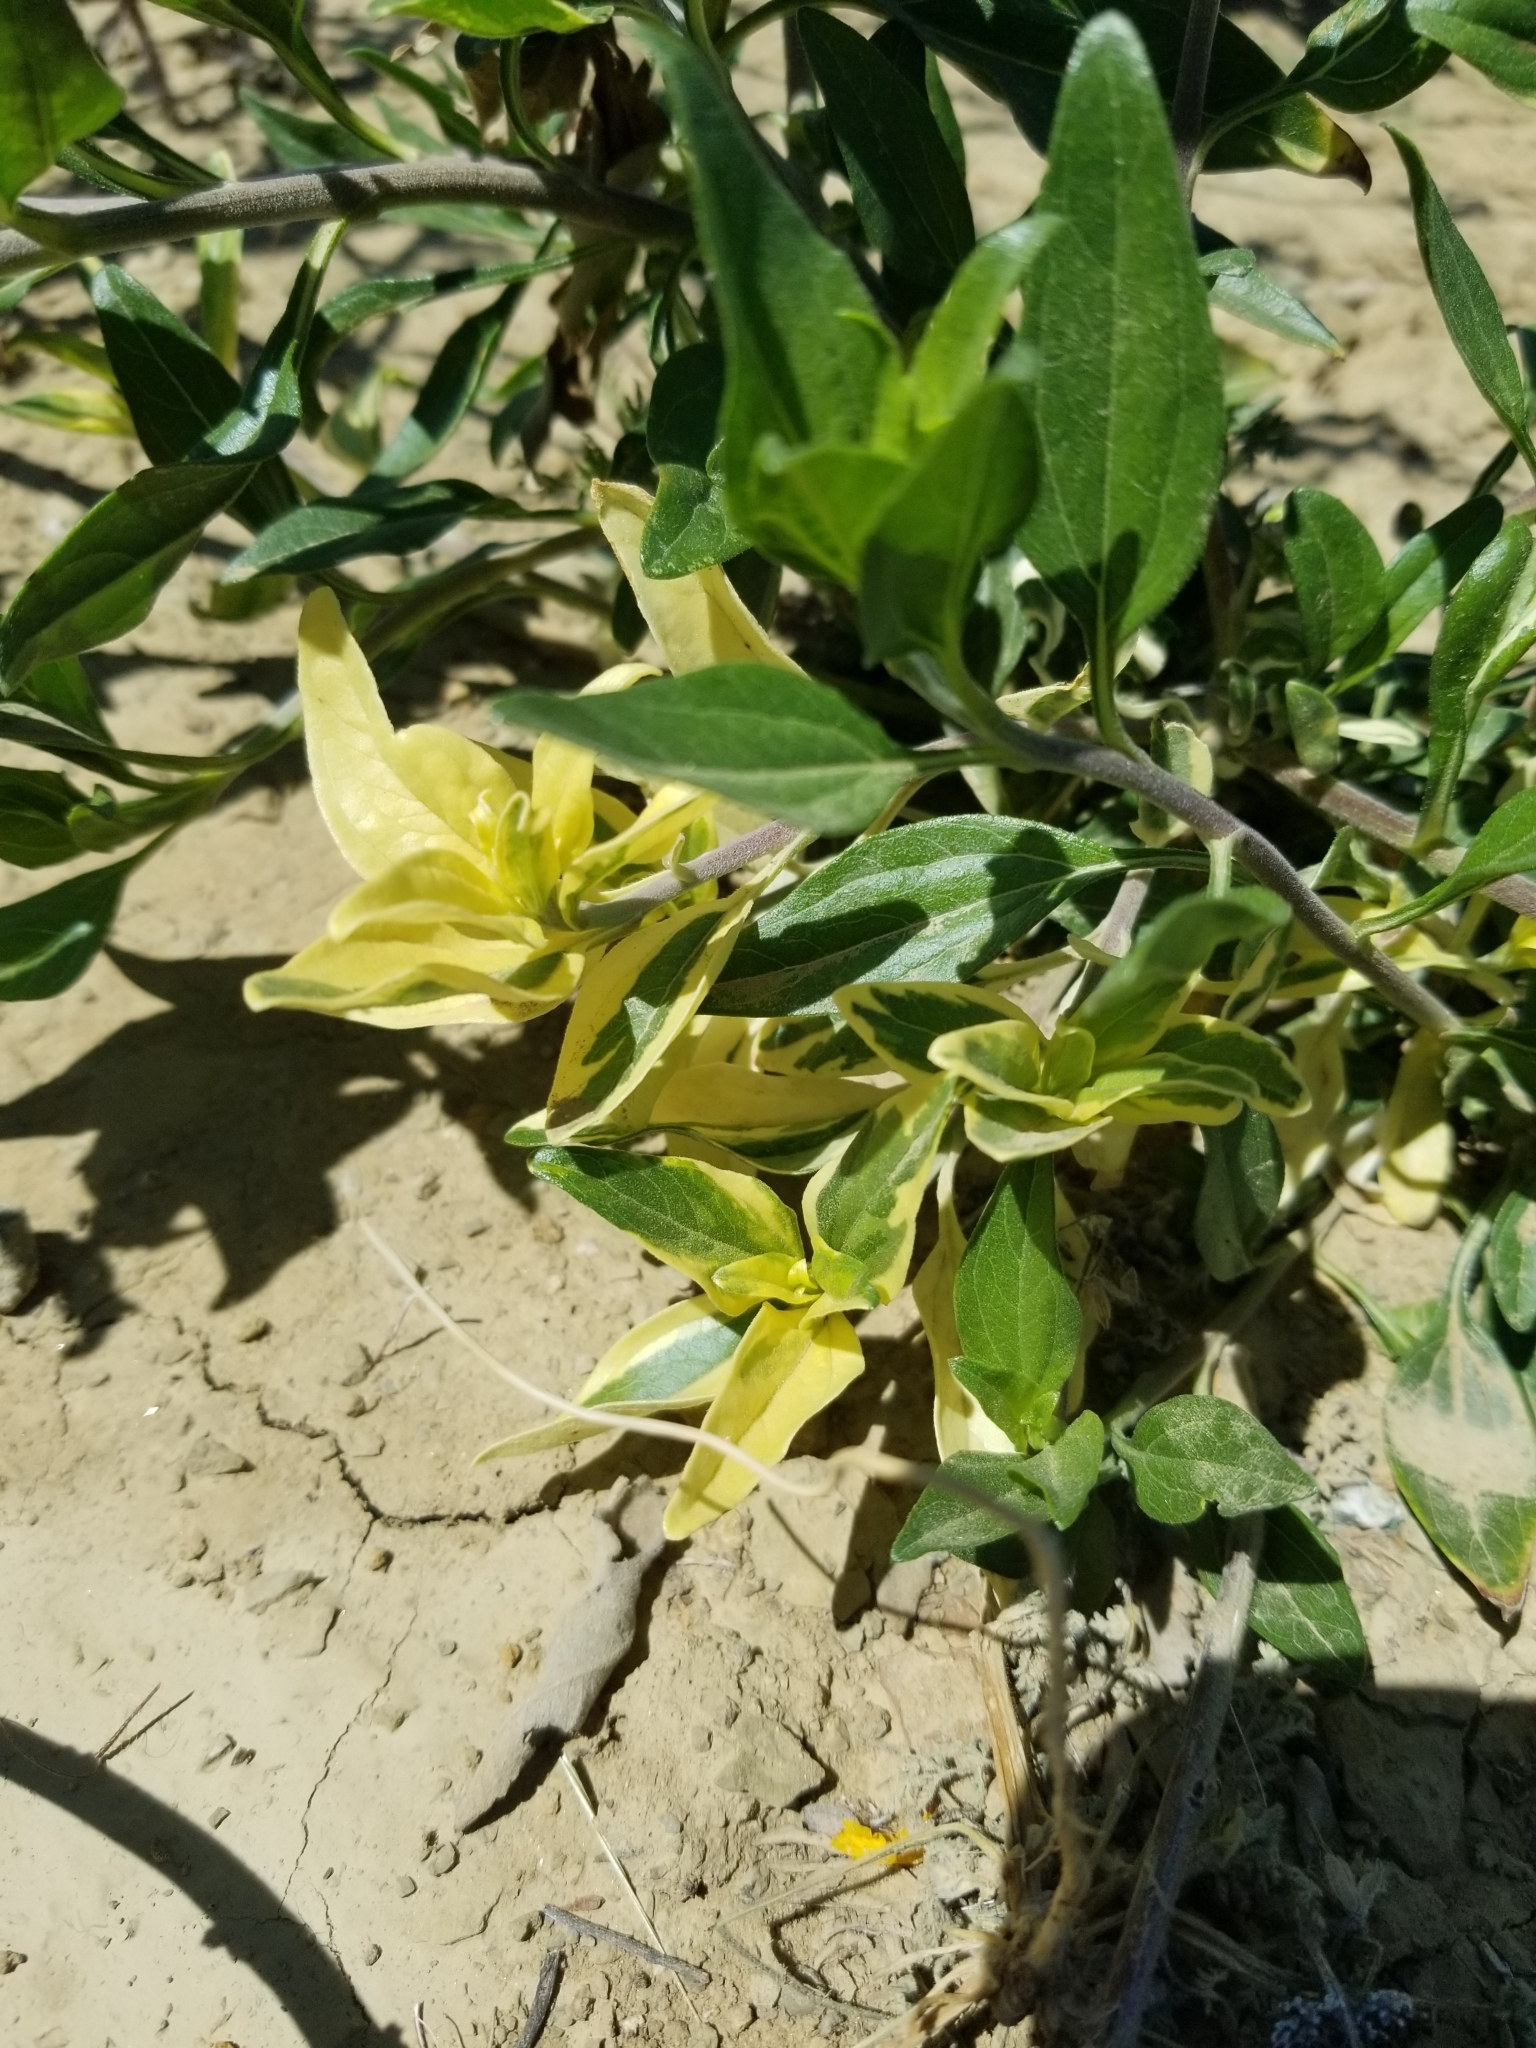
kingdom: Plantae
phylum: Tracheophyta
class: Magnoliopsida
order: Asterales
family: Asteraceae
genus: Encelia
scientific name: Encelia californica
